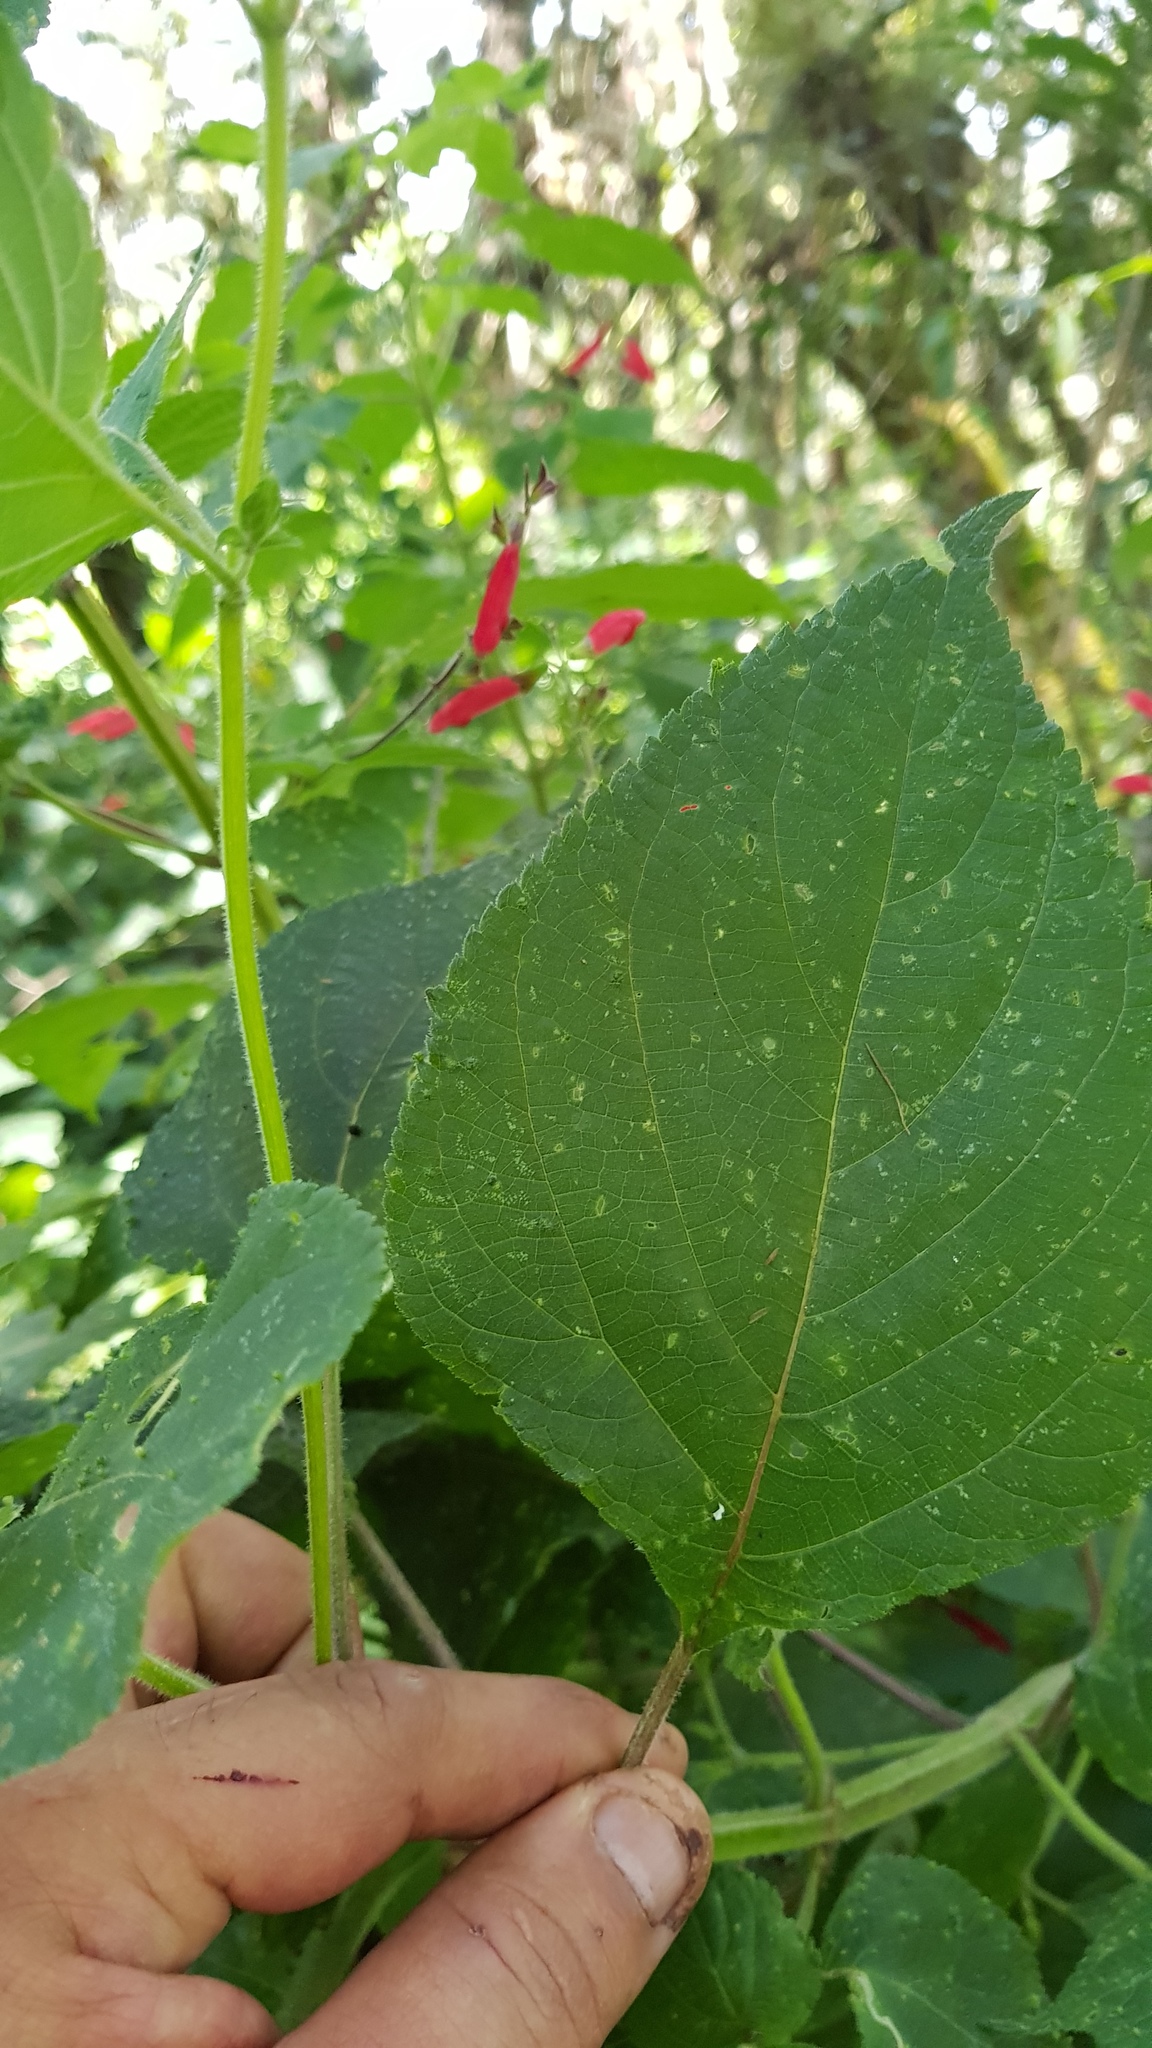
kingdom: Plantae
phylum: Tracheophyta
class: Magnoliopsida
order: Lamiales
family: Lamiaceae
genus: Salvia
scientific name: Salvia tubifera
